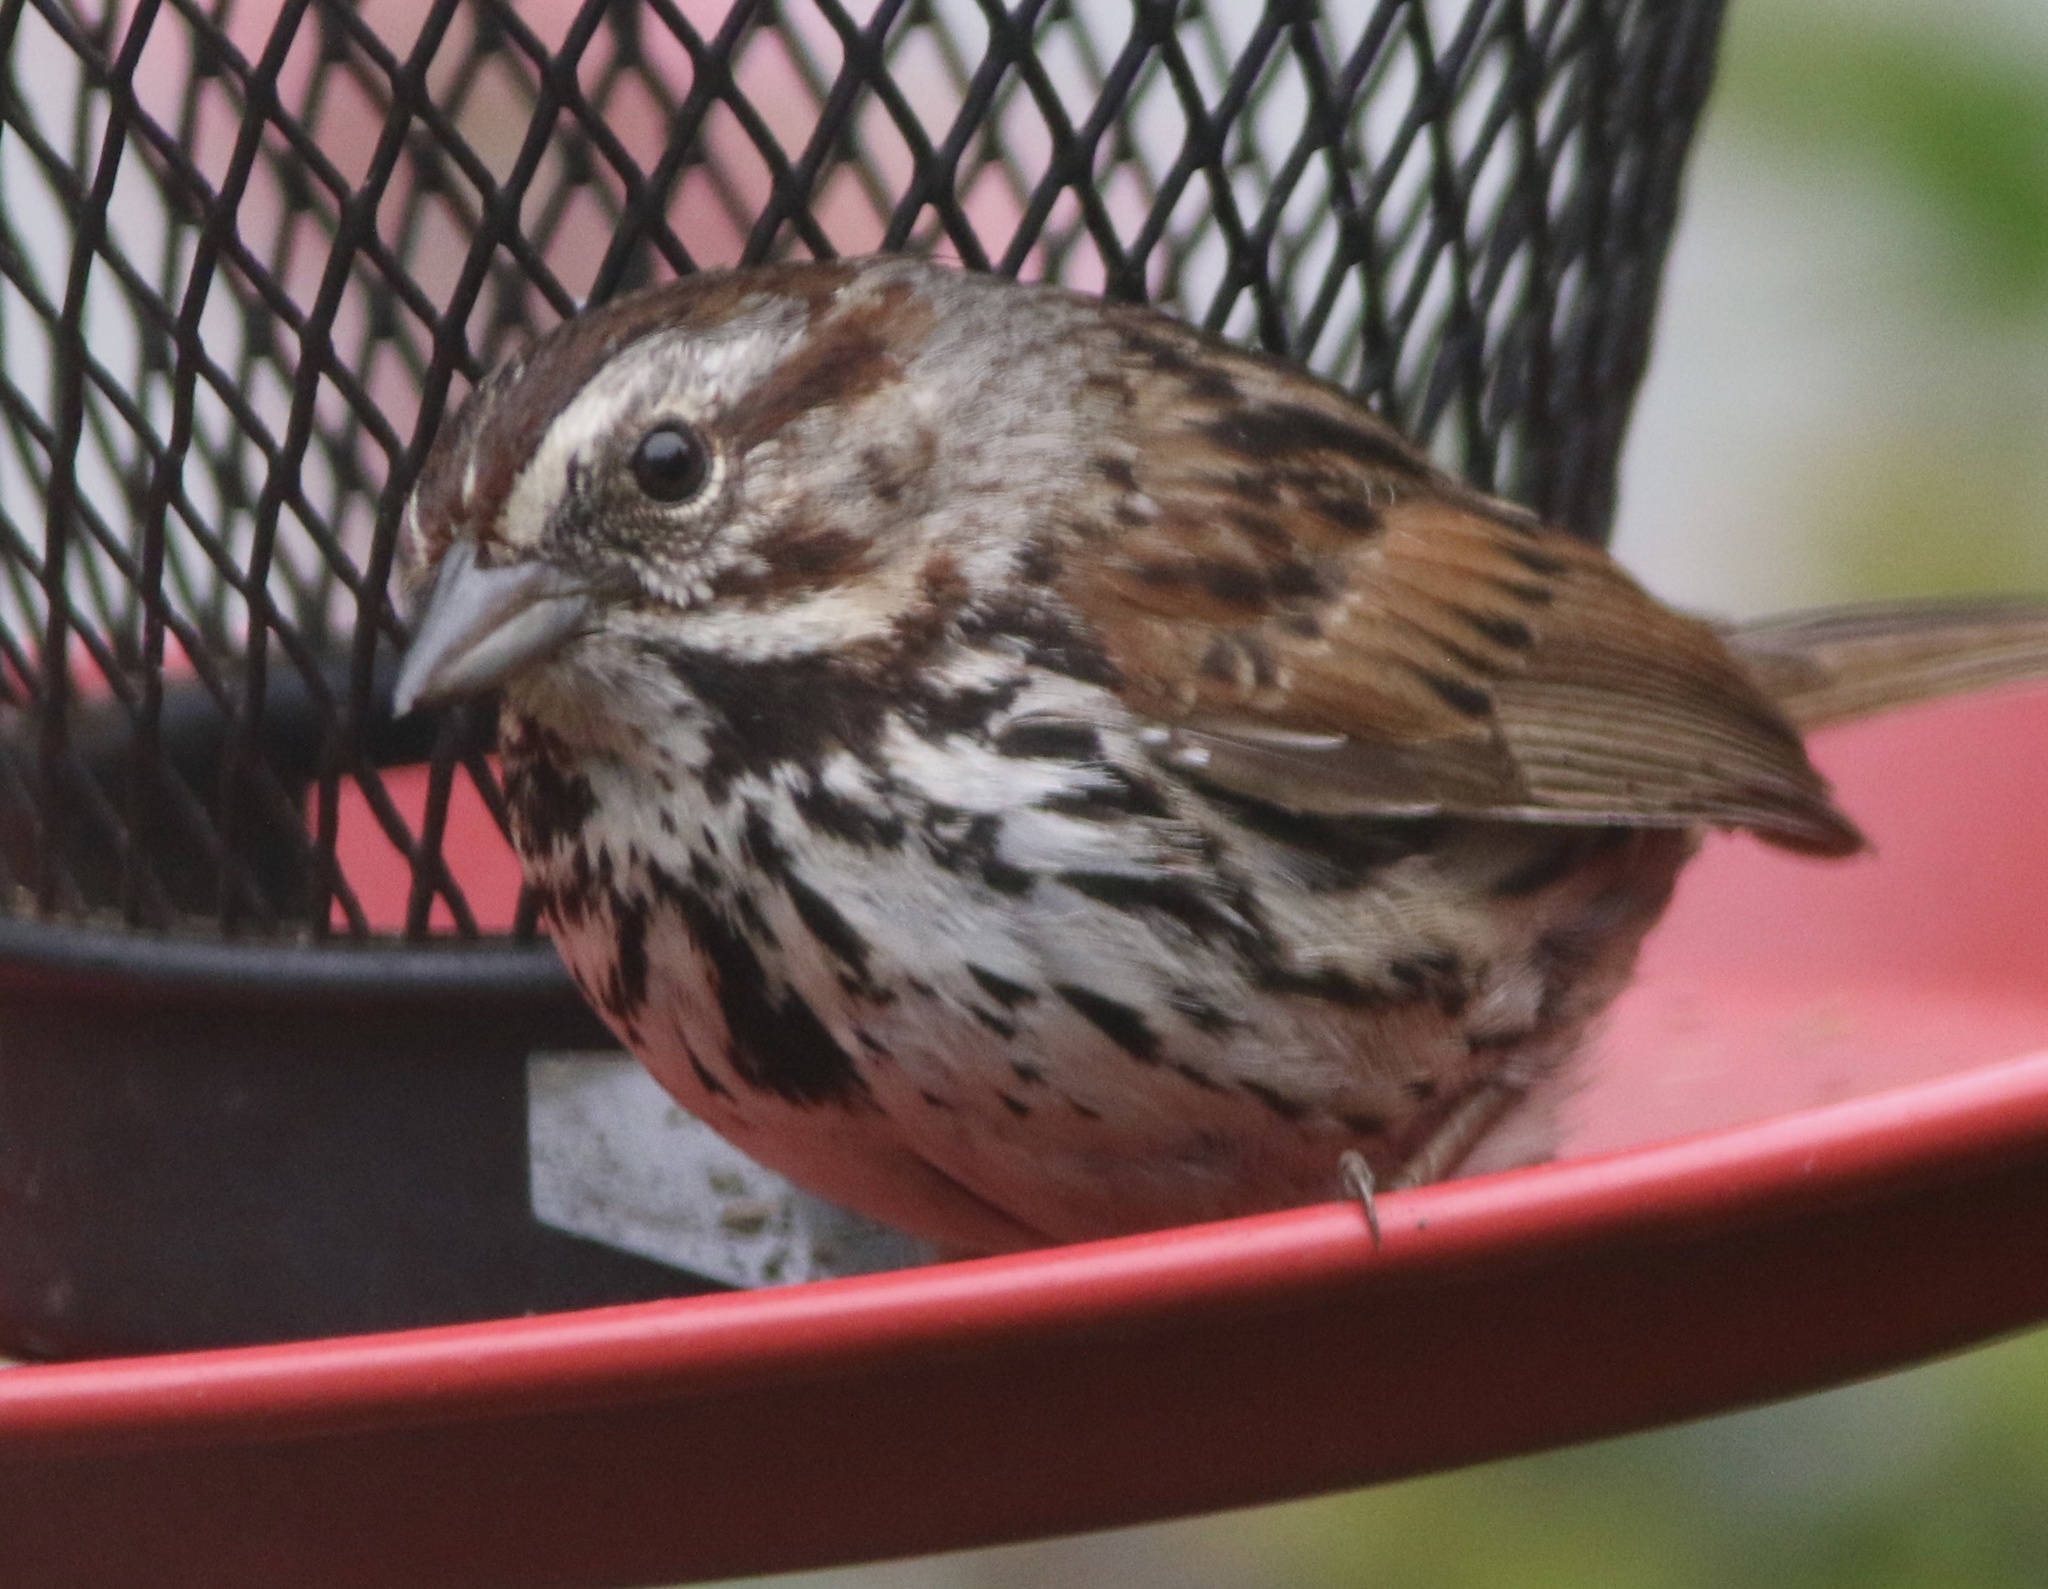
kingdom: Animalia
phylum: Chordata
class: Aves
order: Passeriformes
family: Passerellidae
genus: Melospiza
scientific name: Melospiza melodia
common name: Song sparrow
